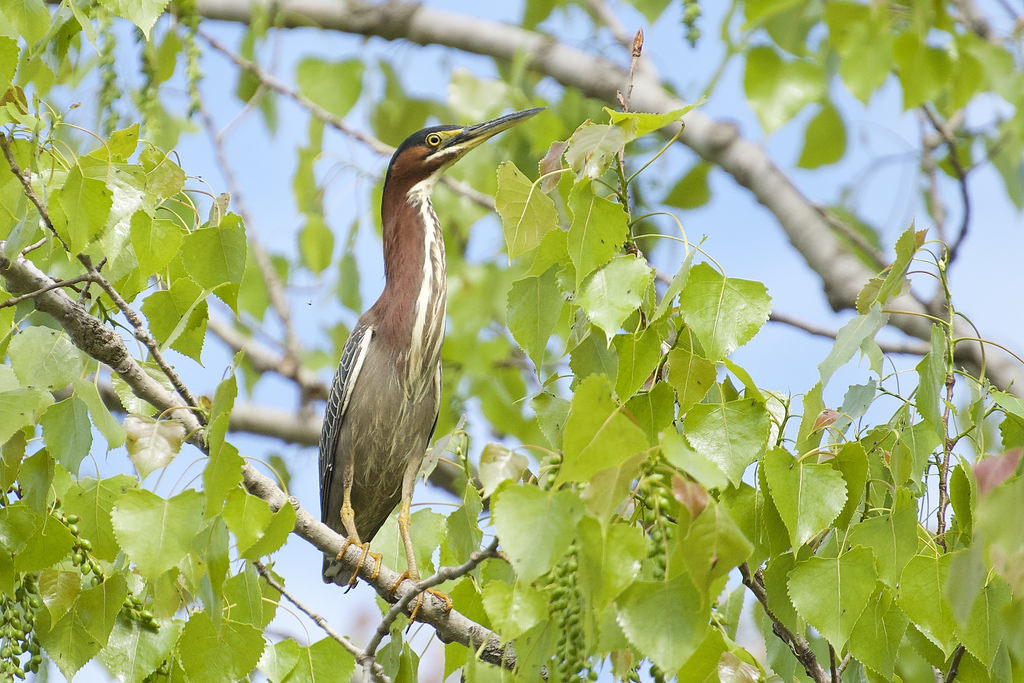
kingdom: Animalia
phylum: Chordata
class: Aves
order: Pelecaniformes
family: Ardeidae
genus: Butorides
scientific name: Butorides virescens
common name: Green heron
